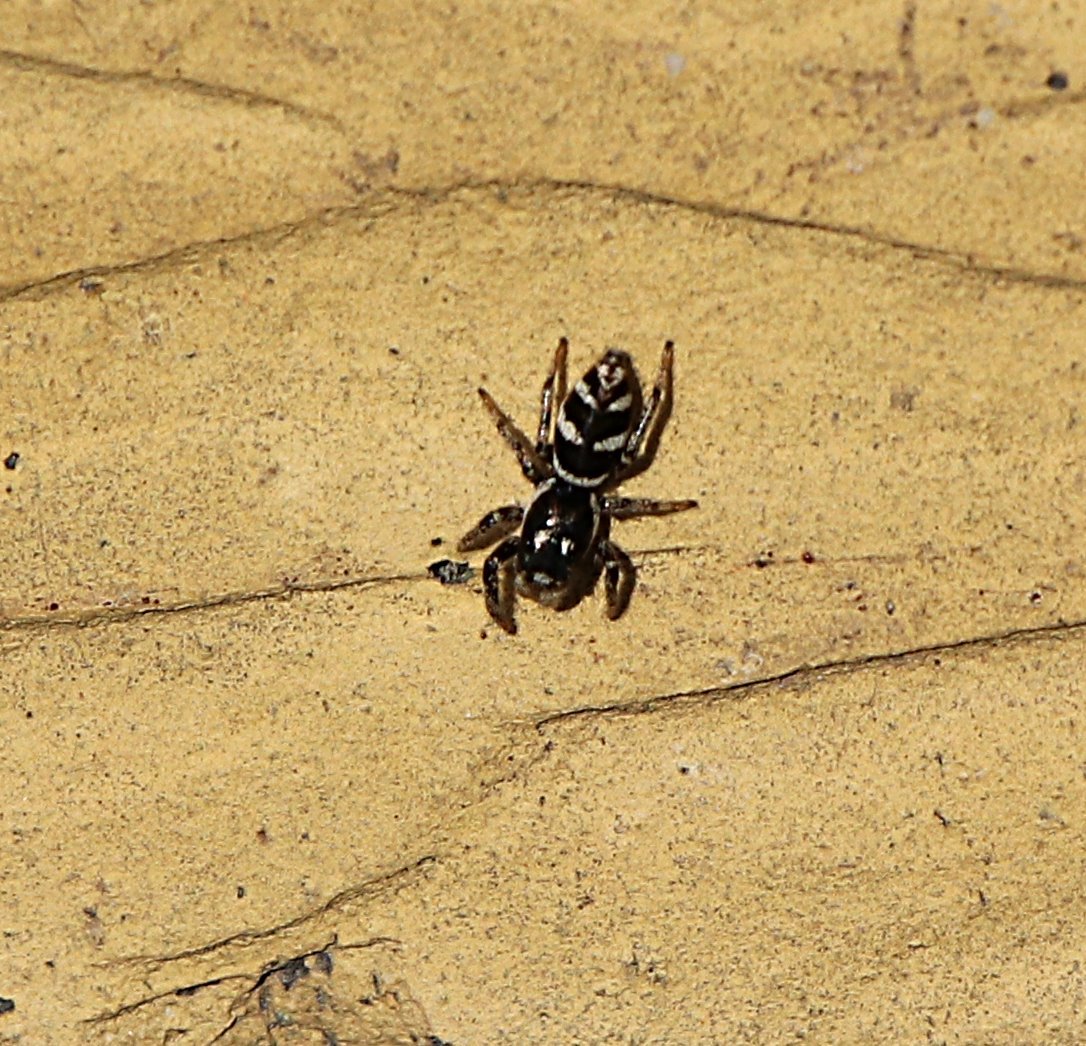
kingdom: Animalia
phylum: Arthropoda
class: Arachnida
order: Araneae
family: Salticidae
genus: Salticus
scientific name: Salticus scenicus
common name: Zebra jumper
